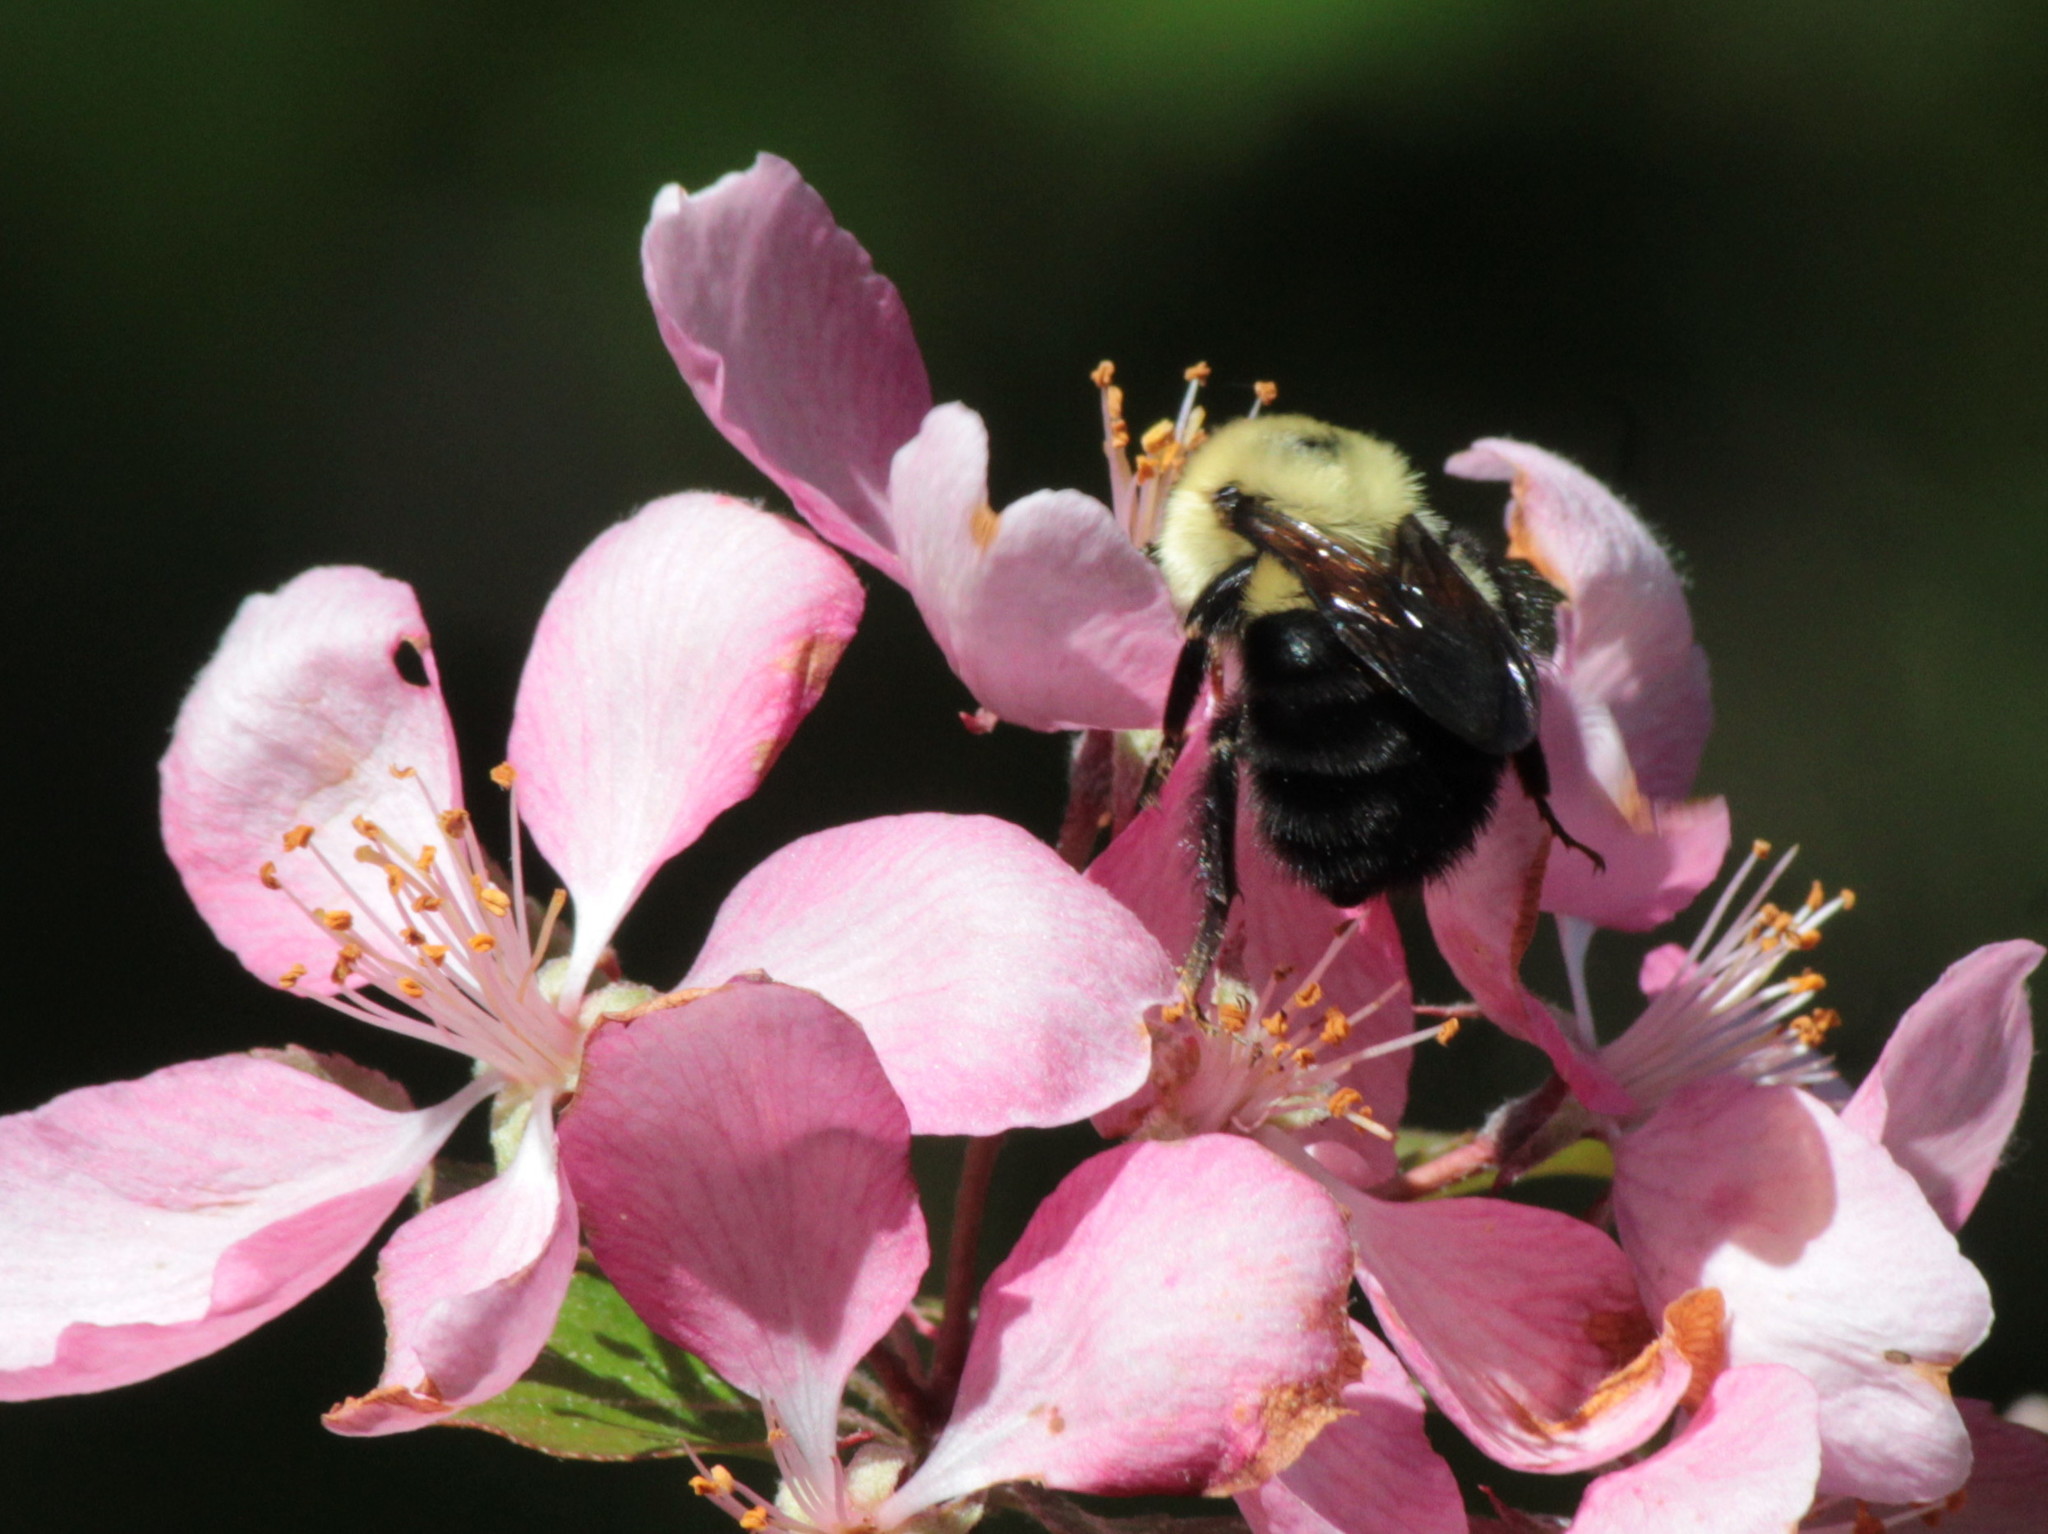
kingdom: Animalia
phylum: Arthropoda
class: Insecta
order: Hymenoptera
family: Apidae
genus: Bombus
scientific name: Bombus bimaculatus
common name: Two-spotted bumble bee
